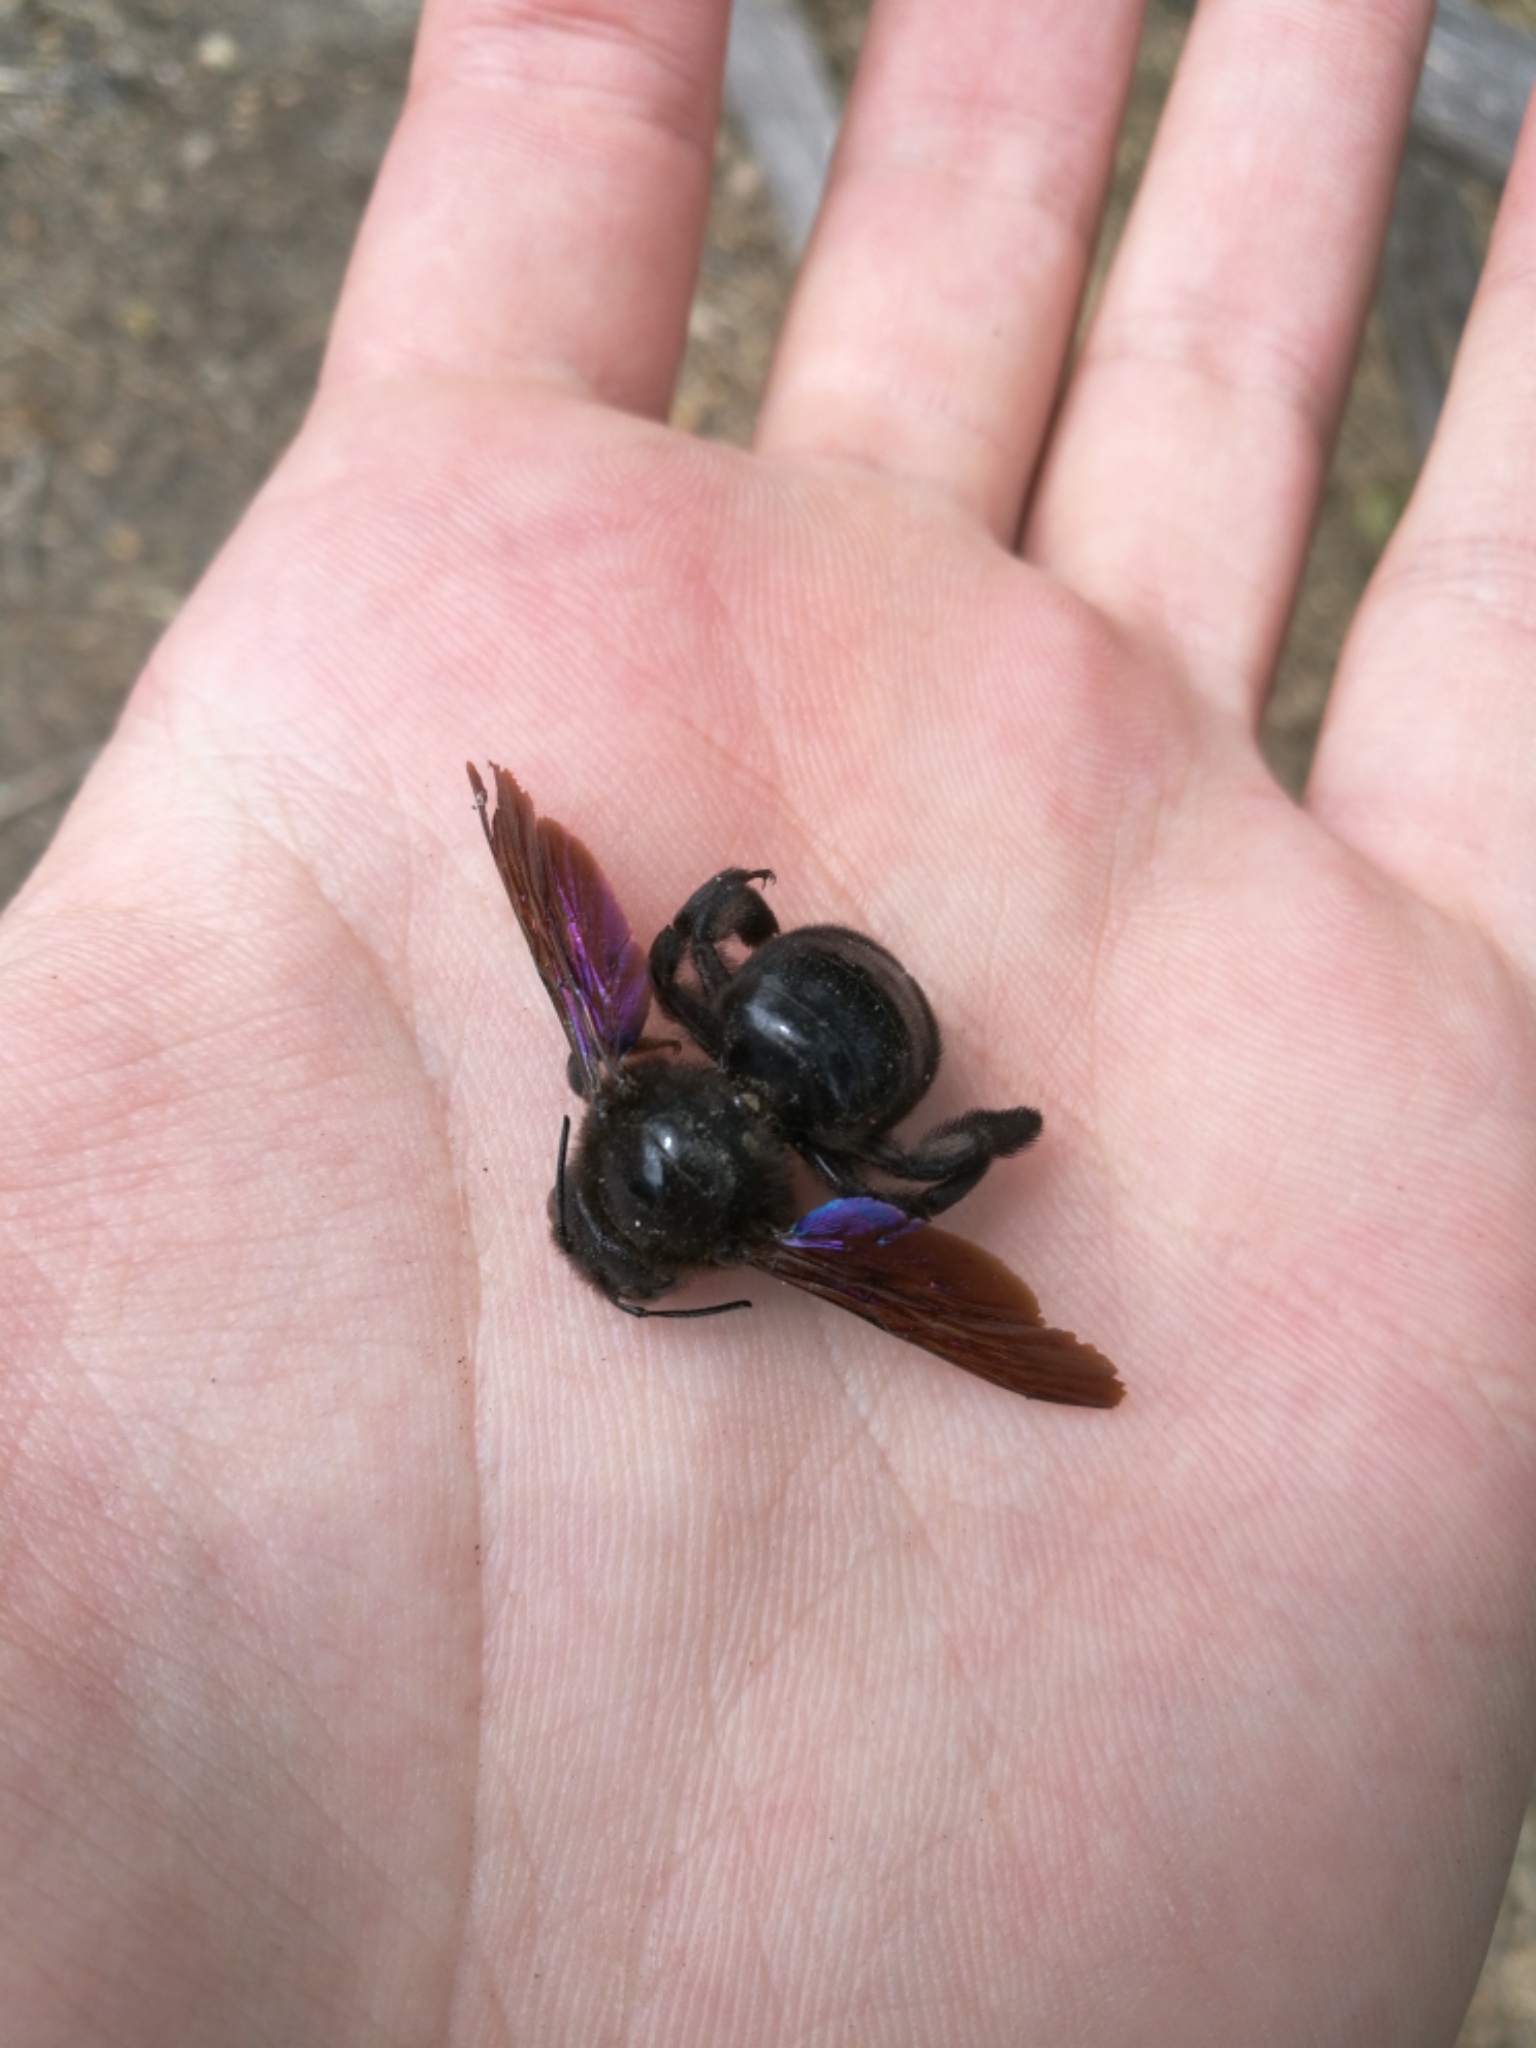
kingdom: Animalia
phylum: Arthropoda
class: Insecta
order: Hymenoptera
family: Apidae
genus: Xylocopa
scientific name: Xylocopa valga
